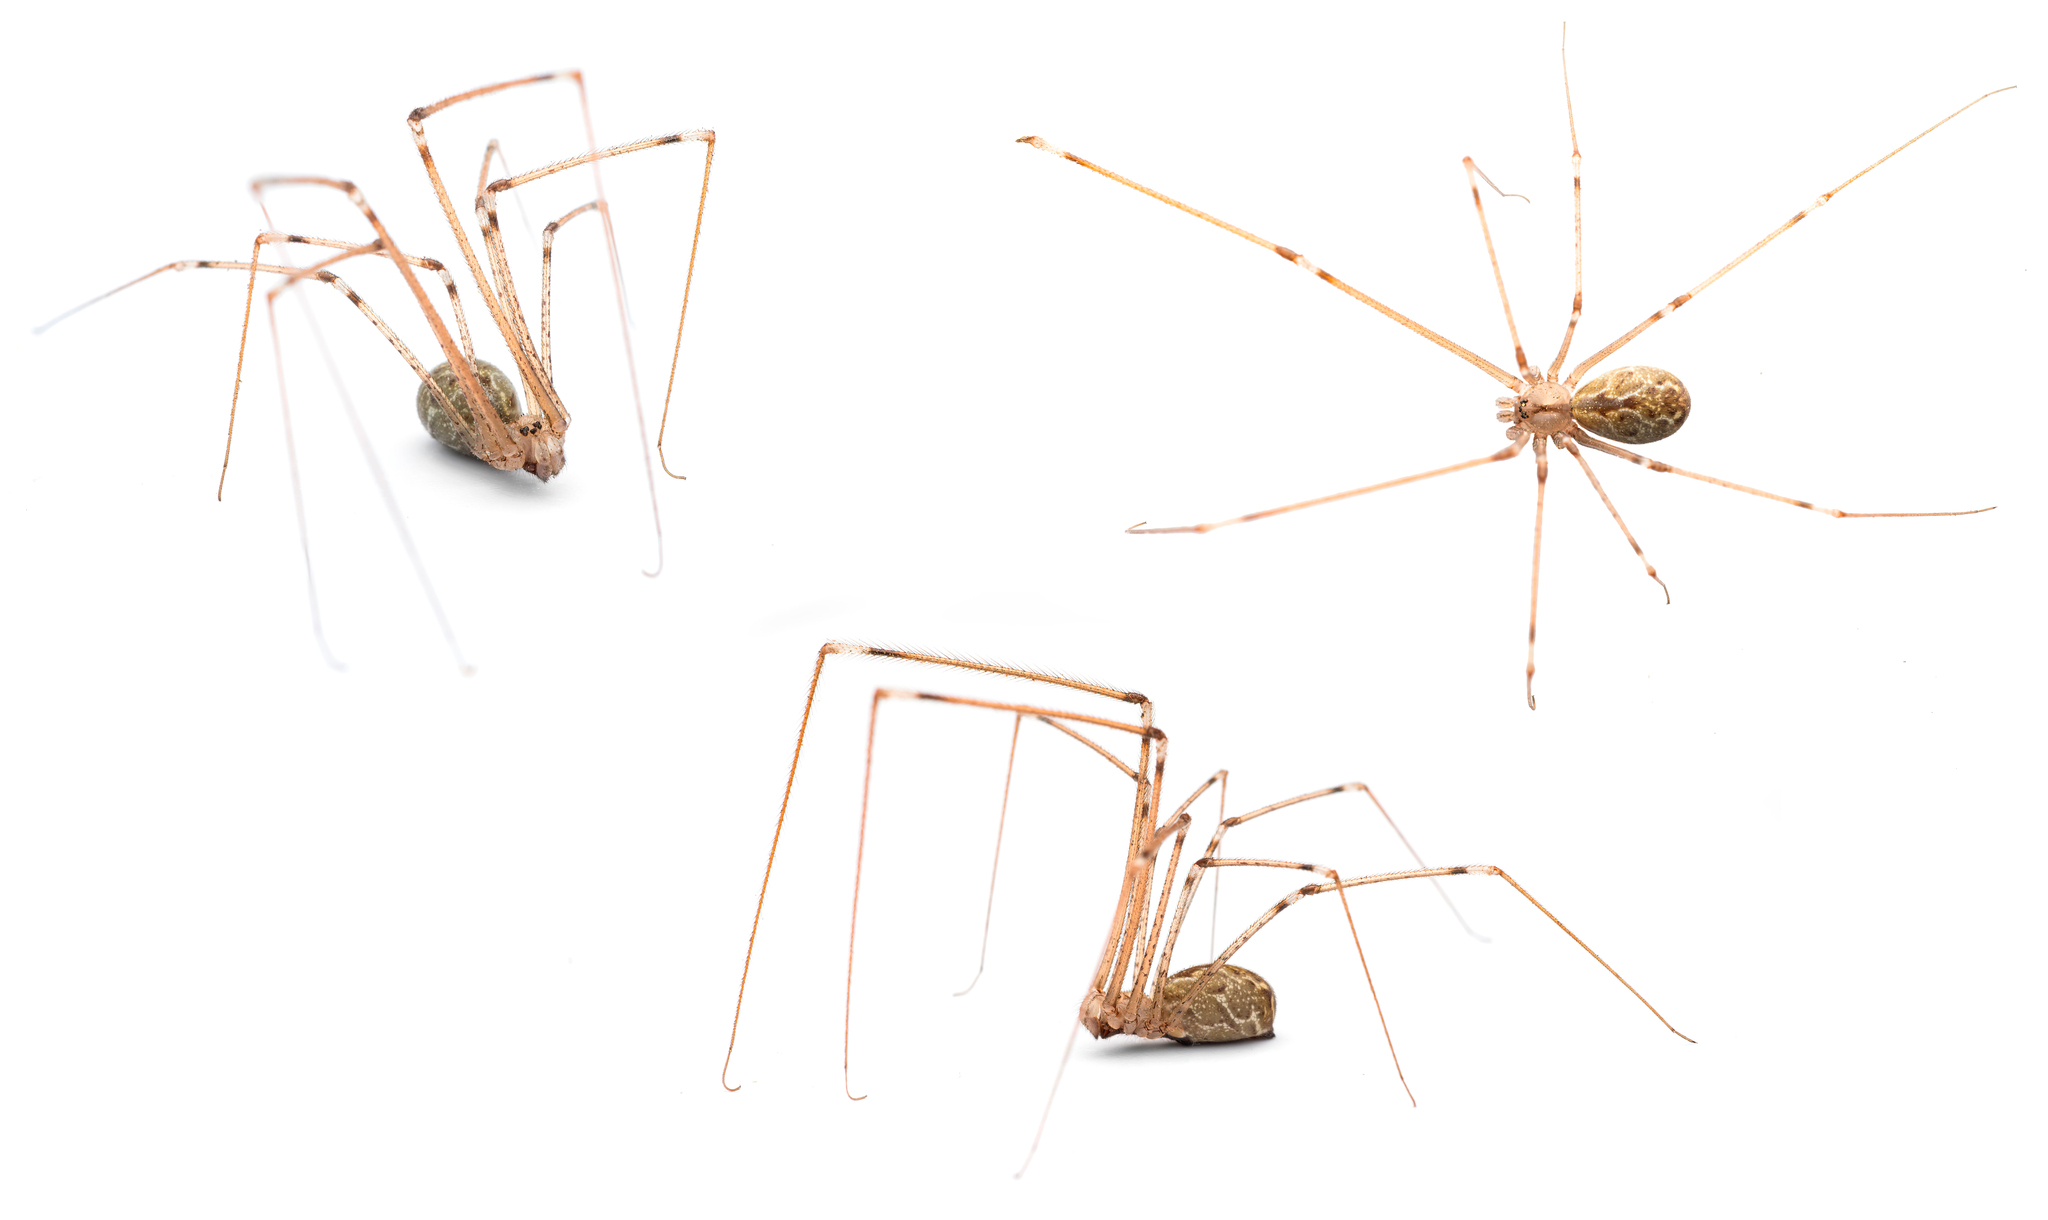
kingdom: Animalia
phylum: Arthropoda
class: Arachnida
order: Araneae
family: Pholcidae
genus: Holocnemus
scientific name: Holocnemus pluchei
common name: Marbled cellar spider
